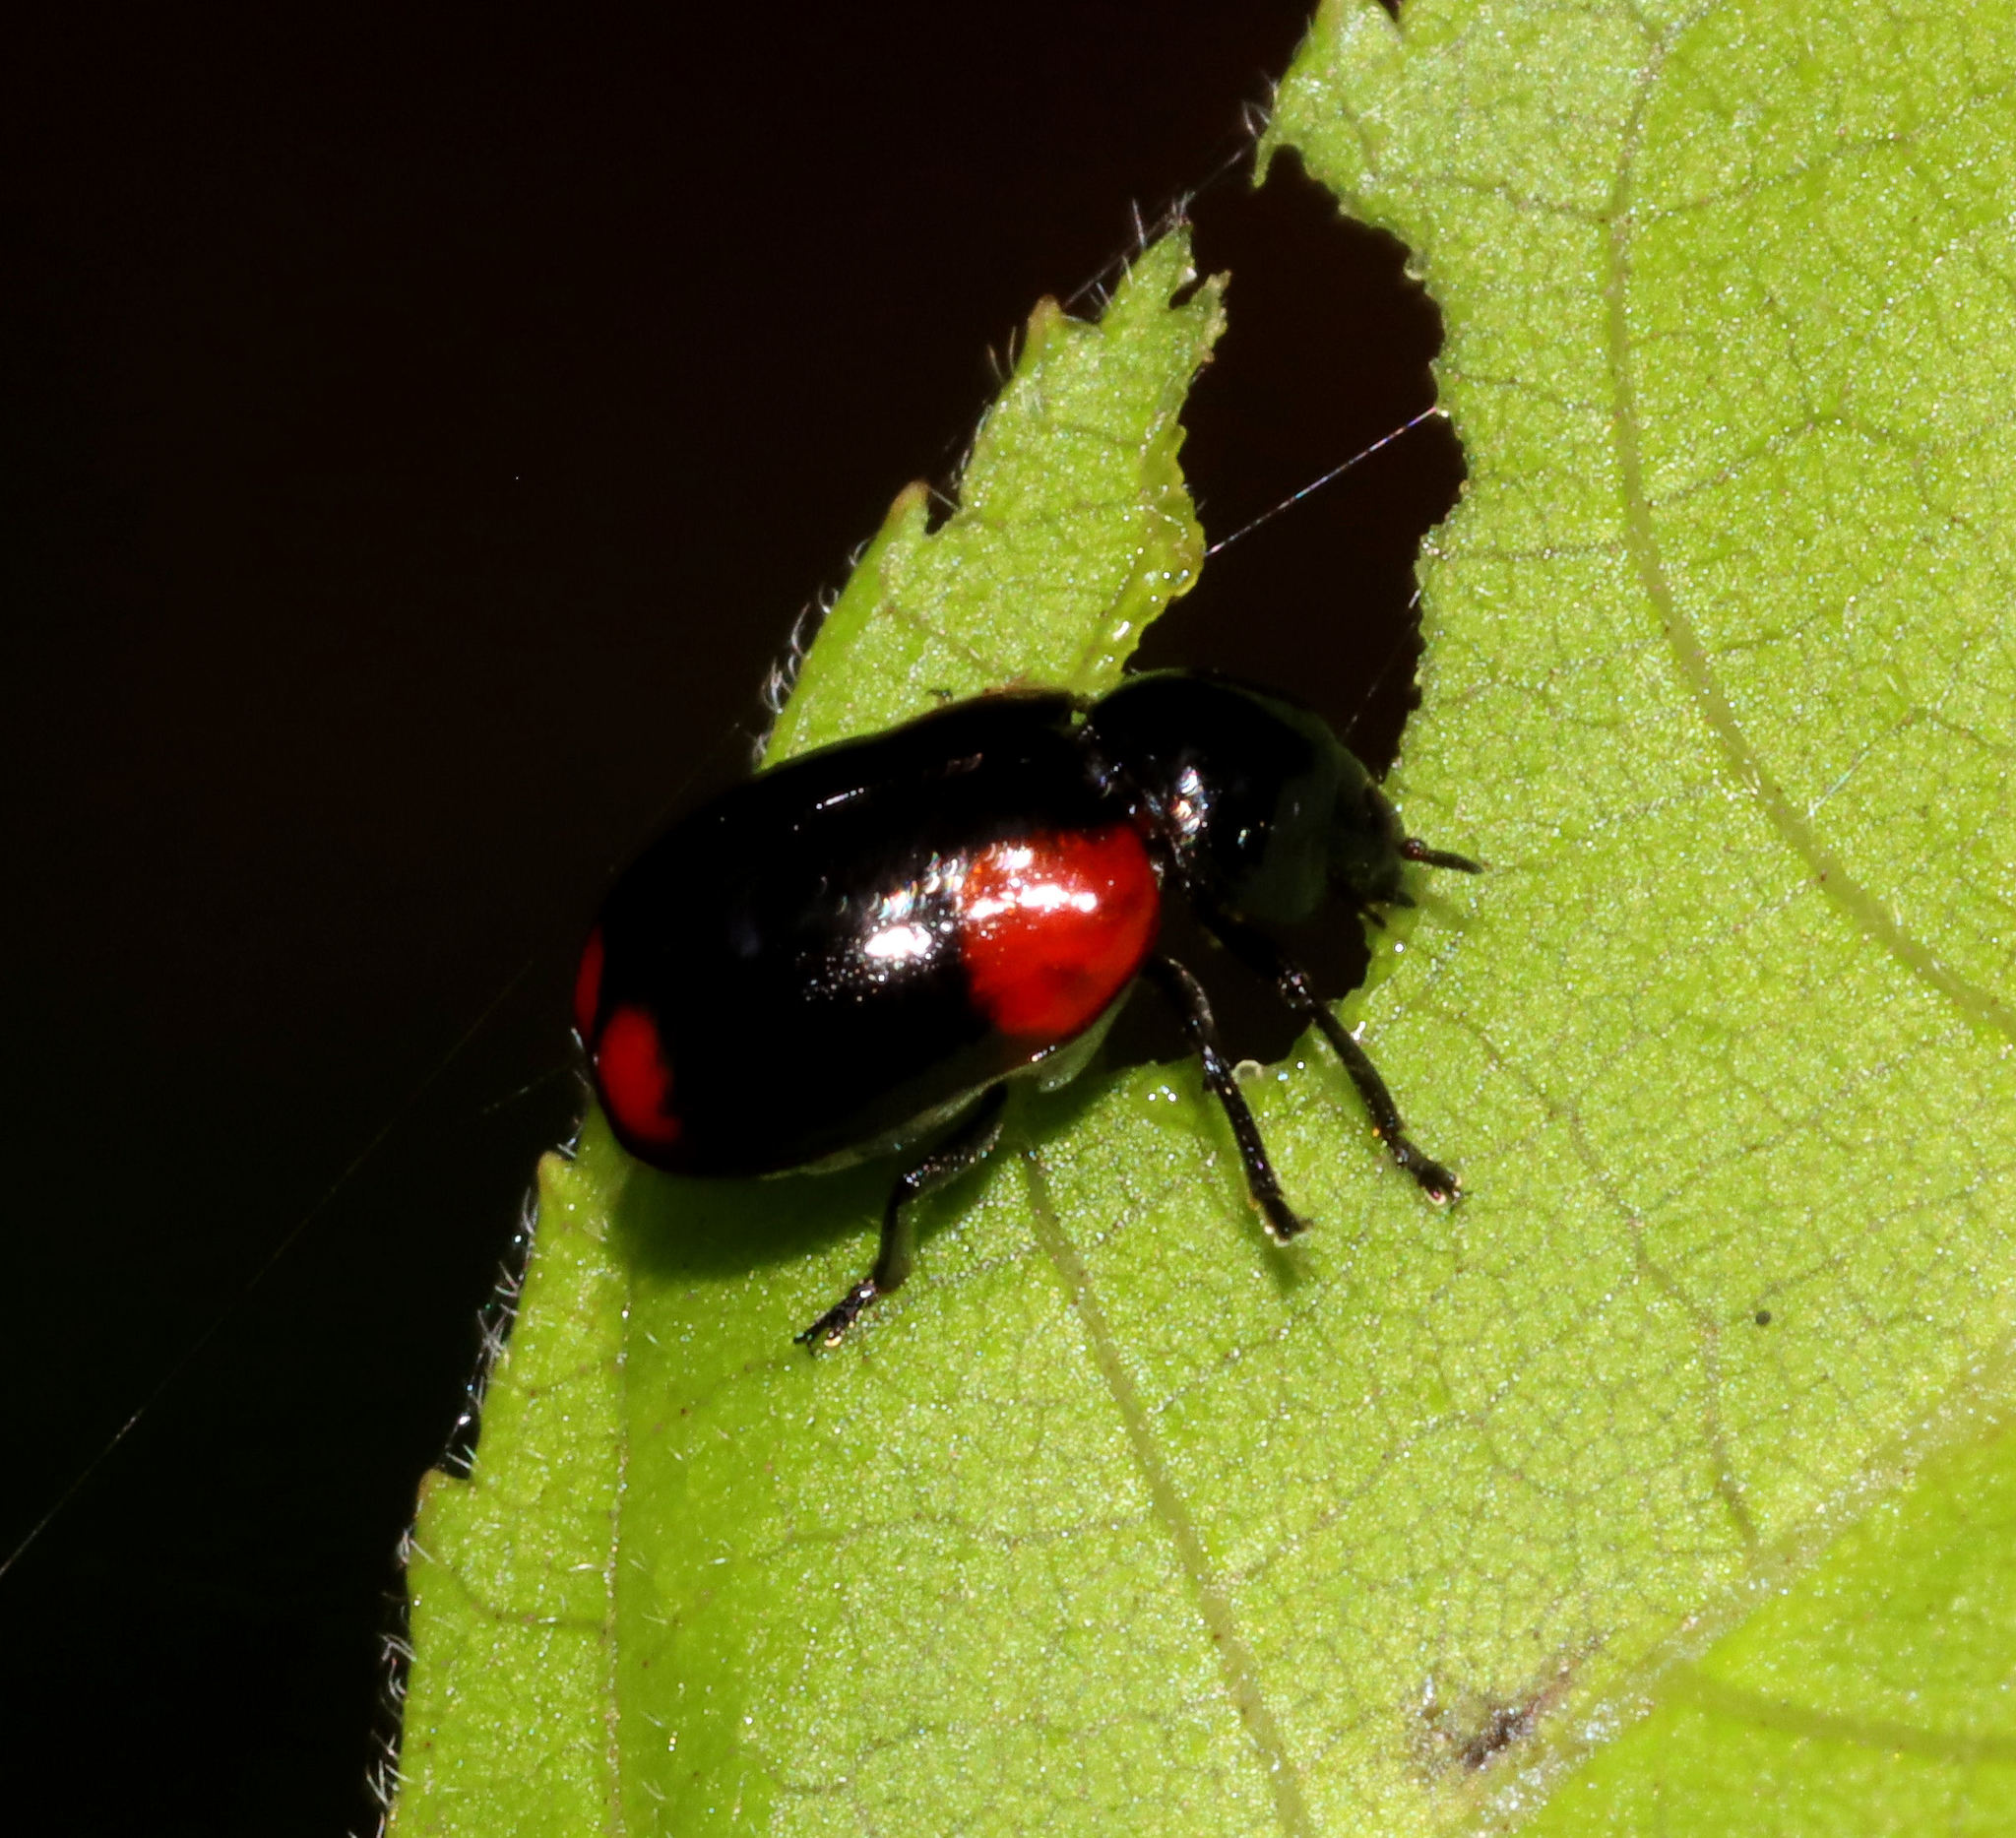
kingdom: Animalia
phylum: Arthropoda
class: Insecta
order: Coleoptera
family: Chrysomelidae
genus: Babia
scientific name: Babia quadriguttata
